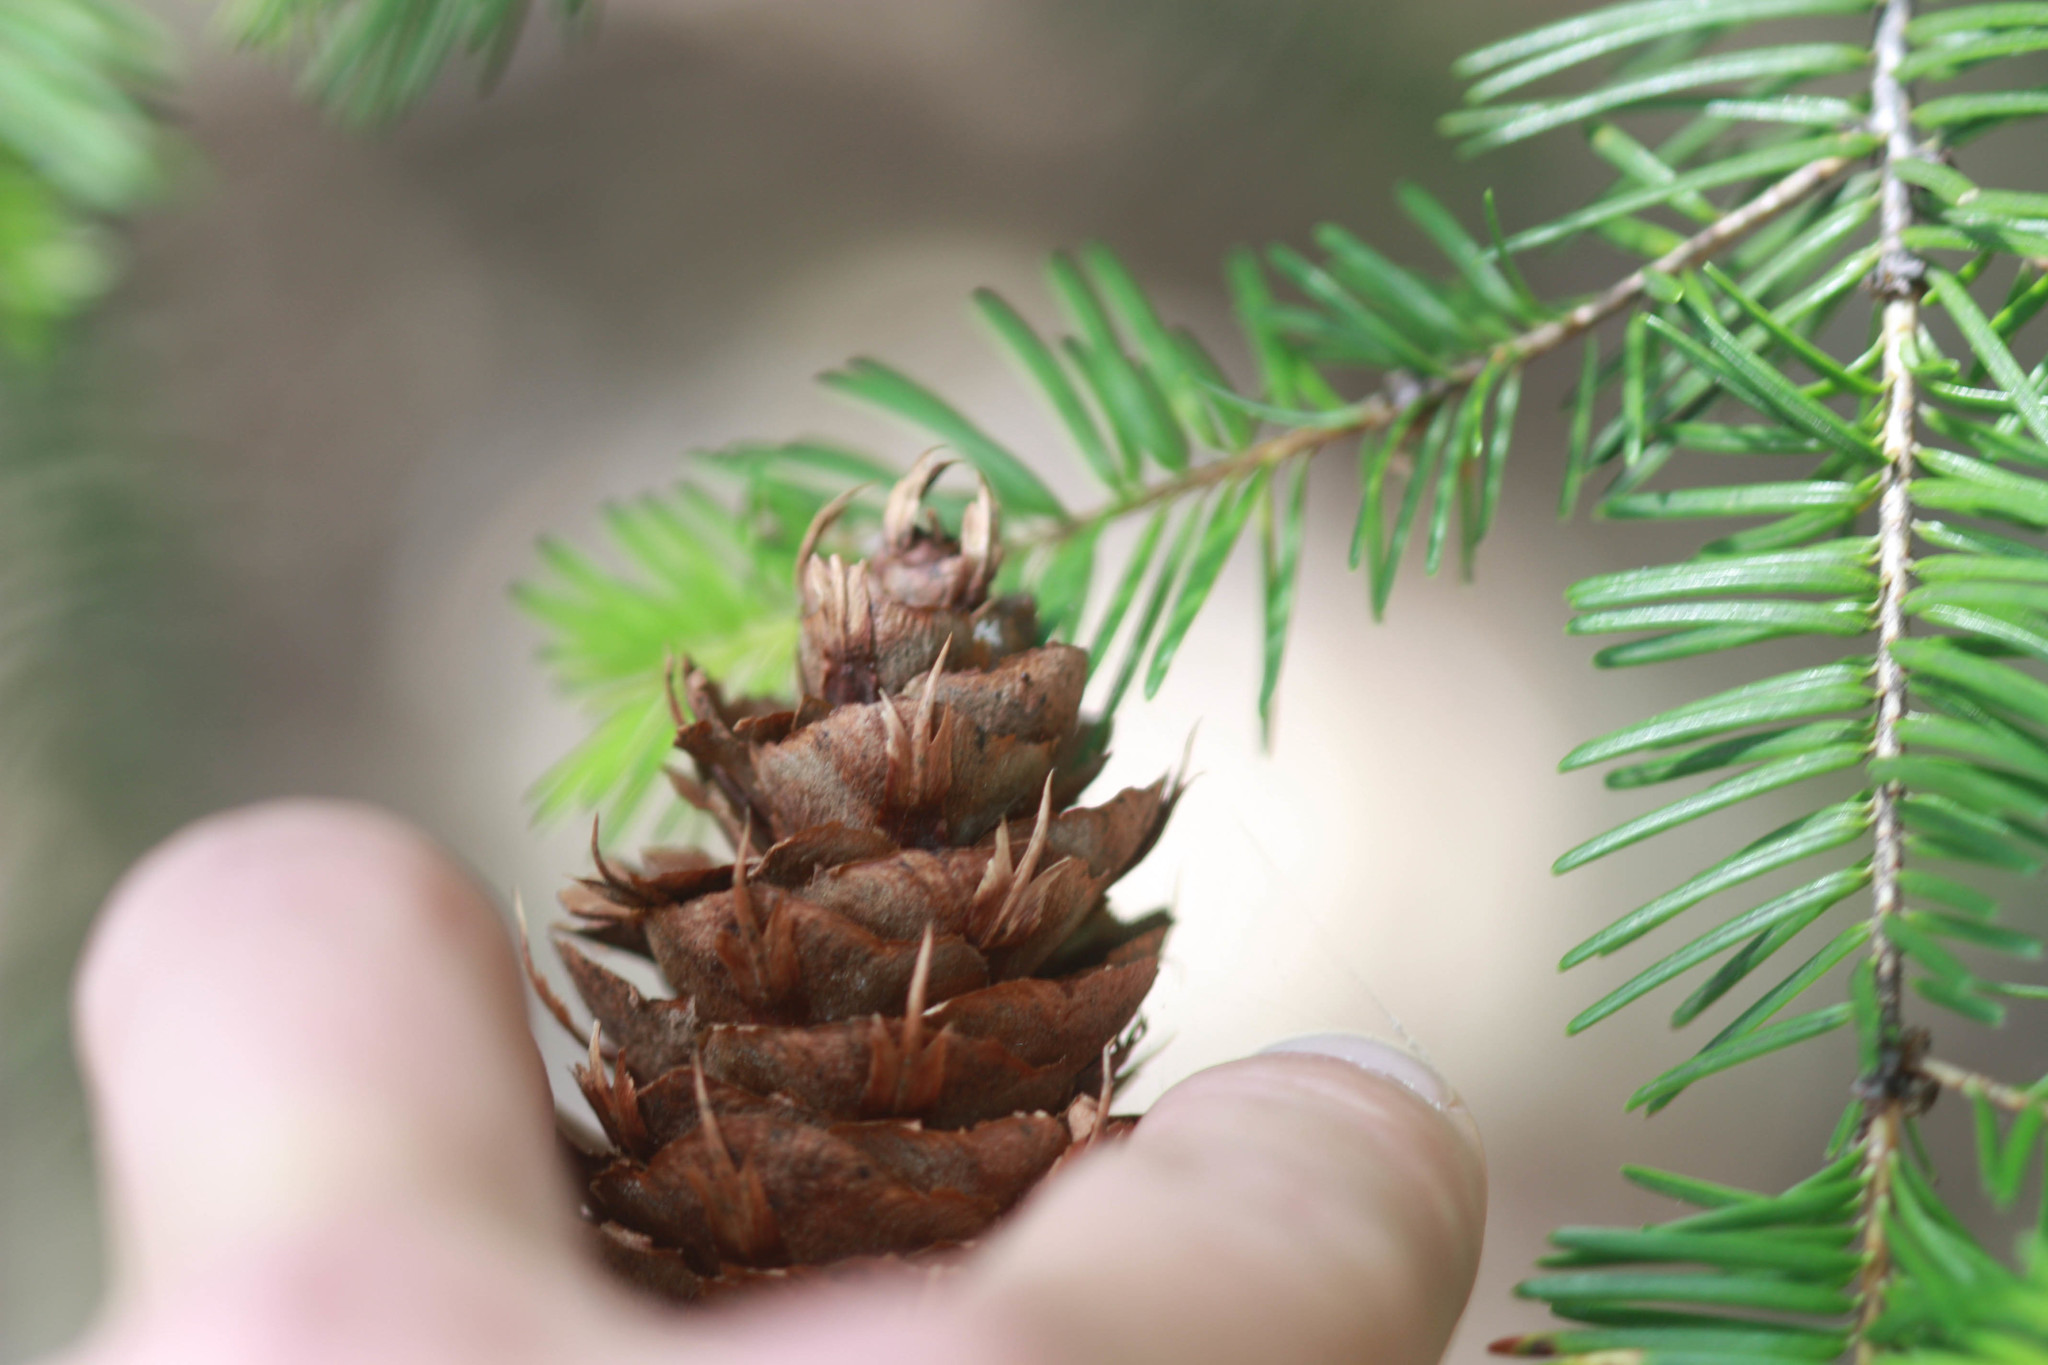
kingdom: Plantae
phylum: Tracheophyta
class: Pinopsida
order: Pinales
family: Pinaceae
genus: Pseudotsuga
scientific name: Pseudotsuga menziesii
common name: Douglas fir
